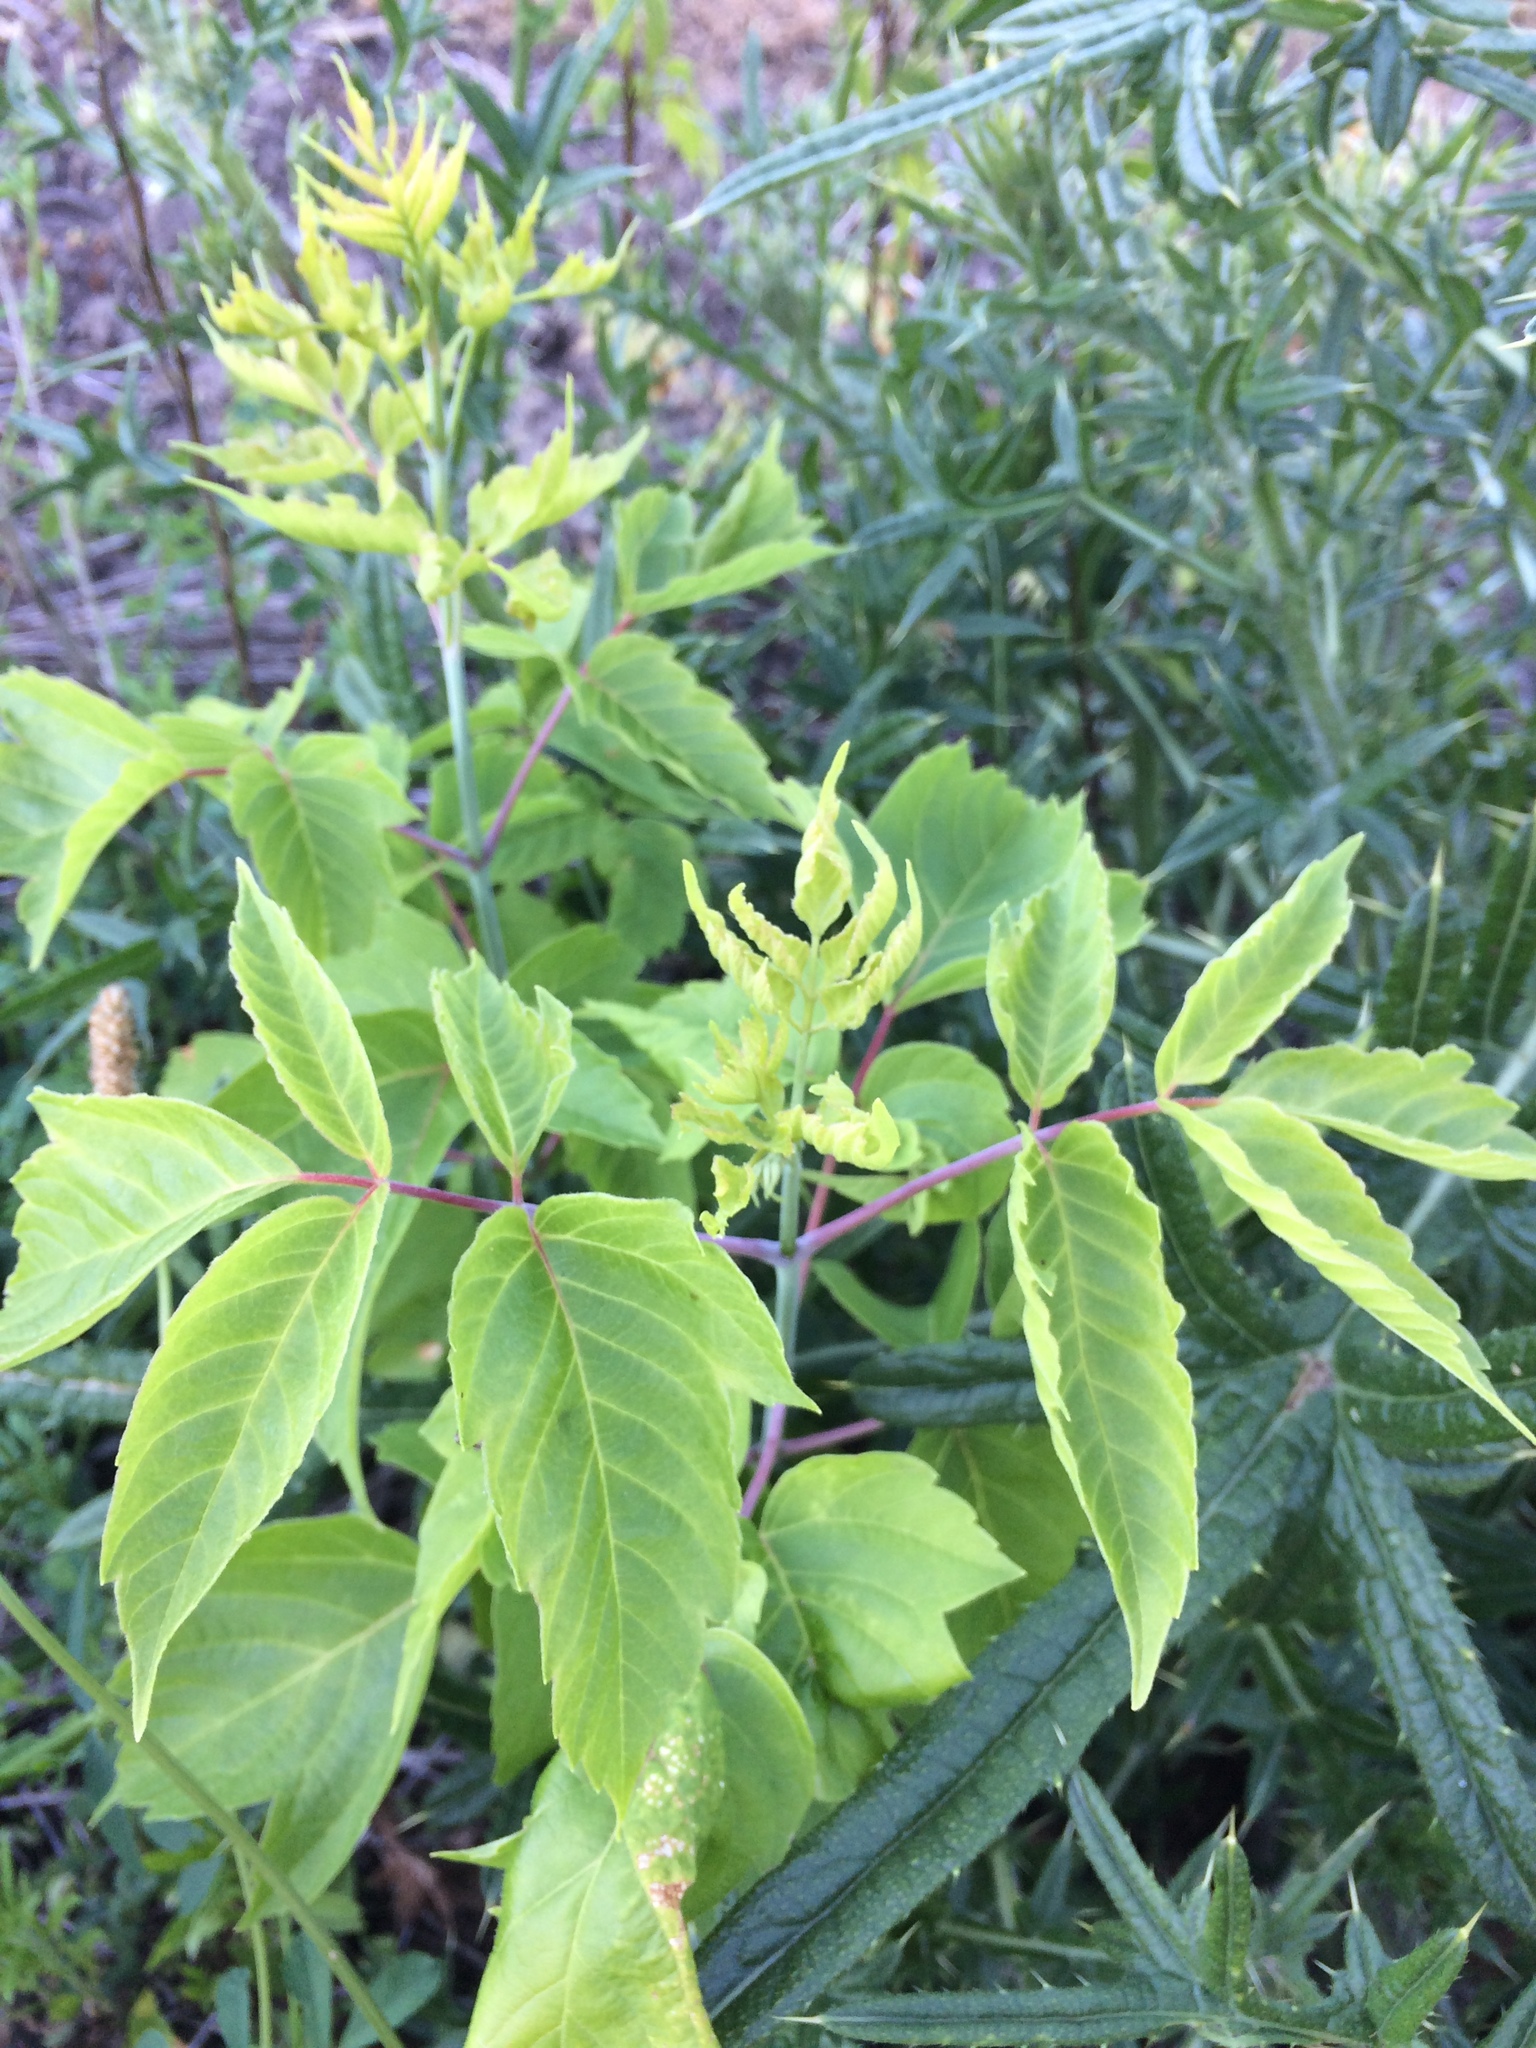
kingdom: Plantae
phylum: Tracheophyta
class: Magnoliopsida
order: Sapindales
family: Sapindaceae
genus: Acer
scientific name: Acer negundo
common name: Ashleaf maple
